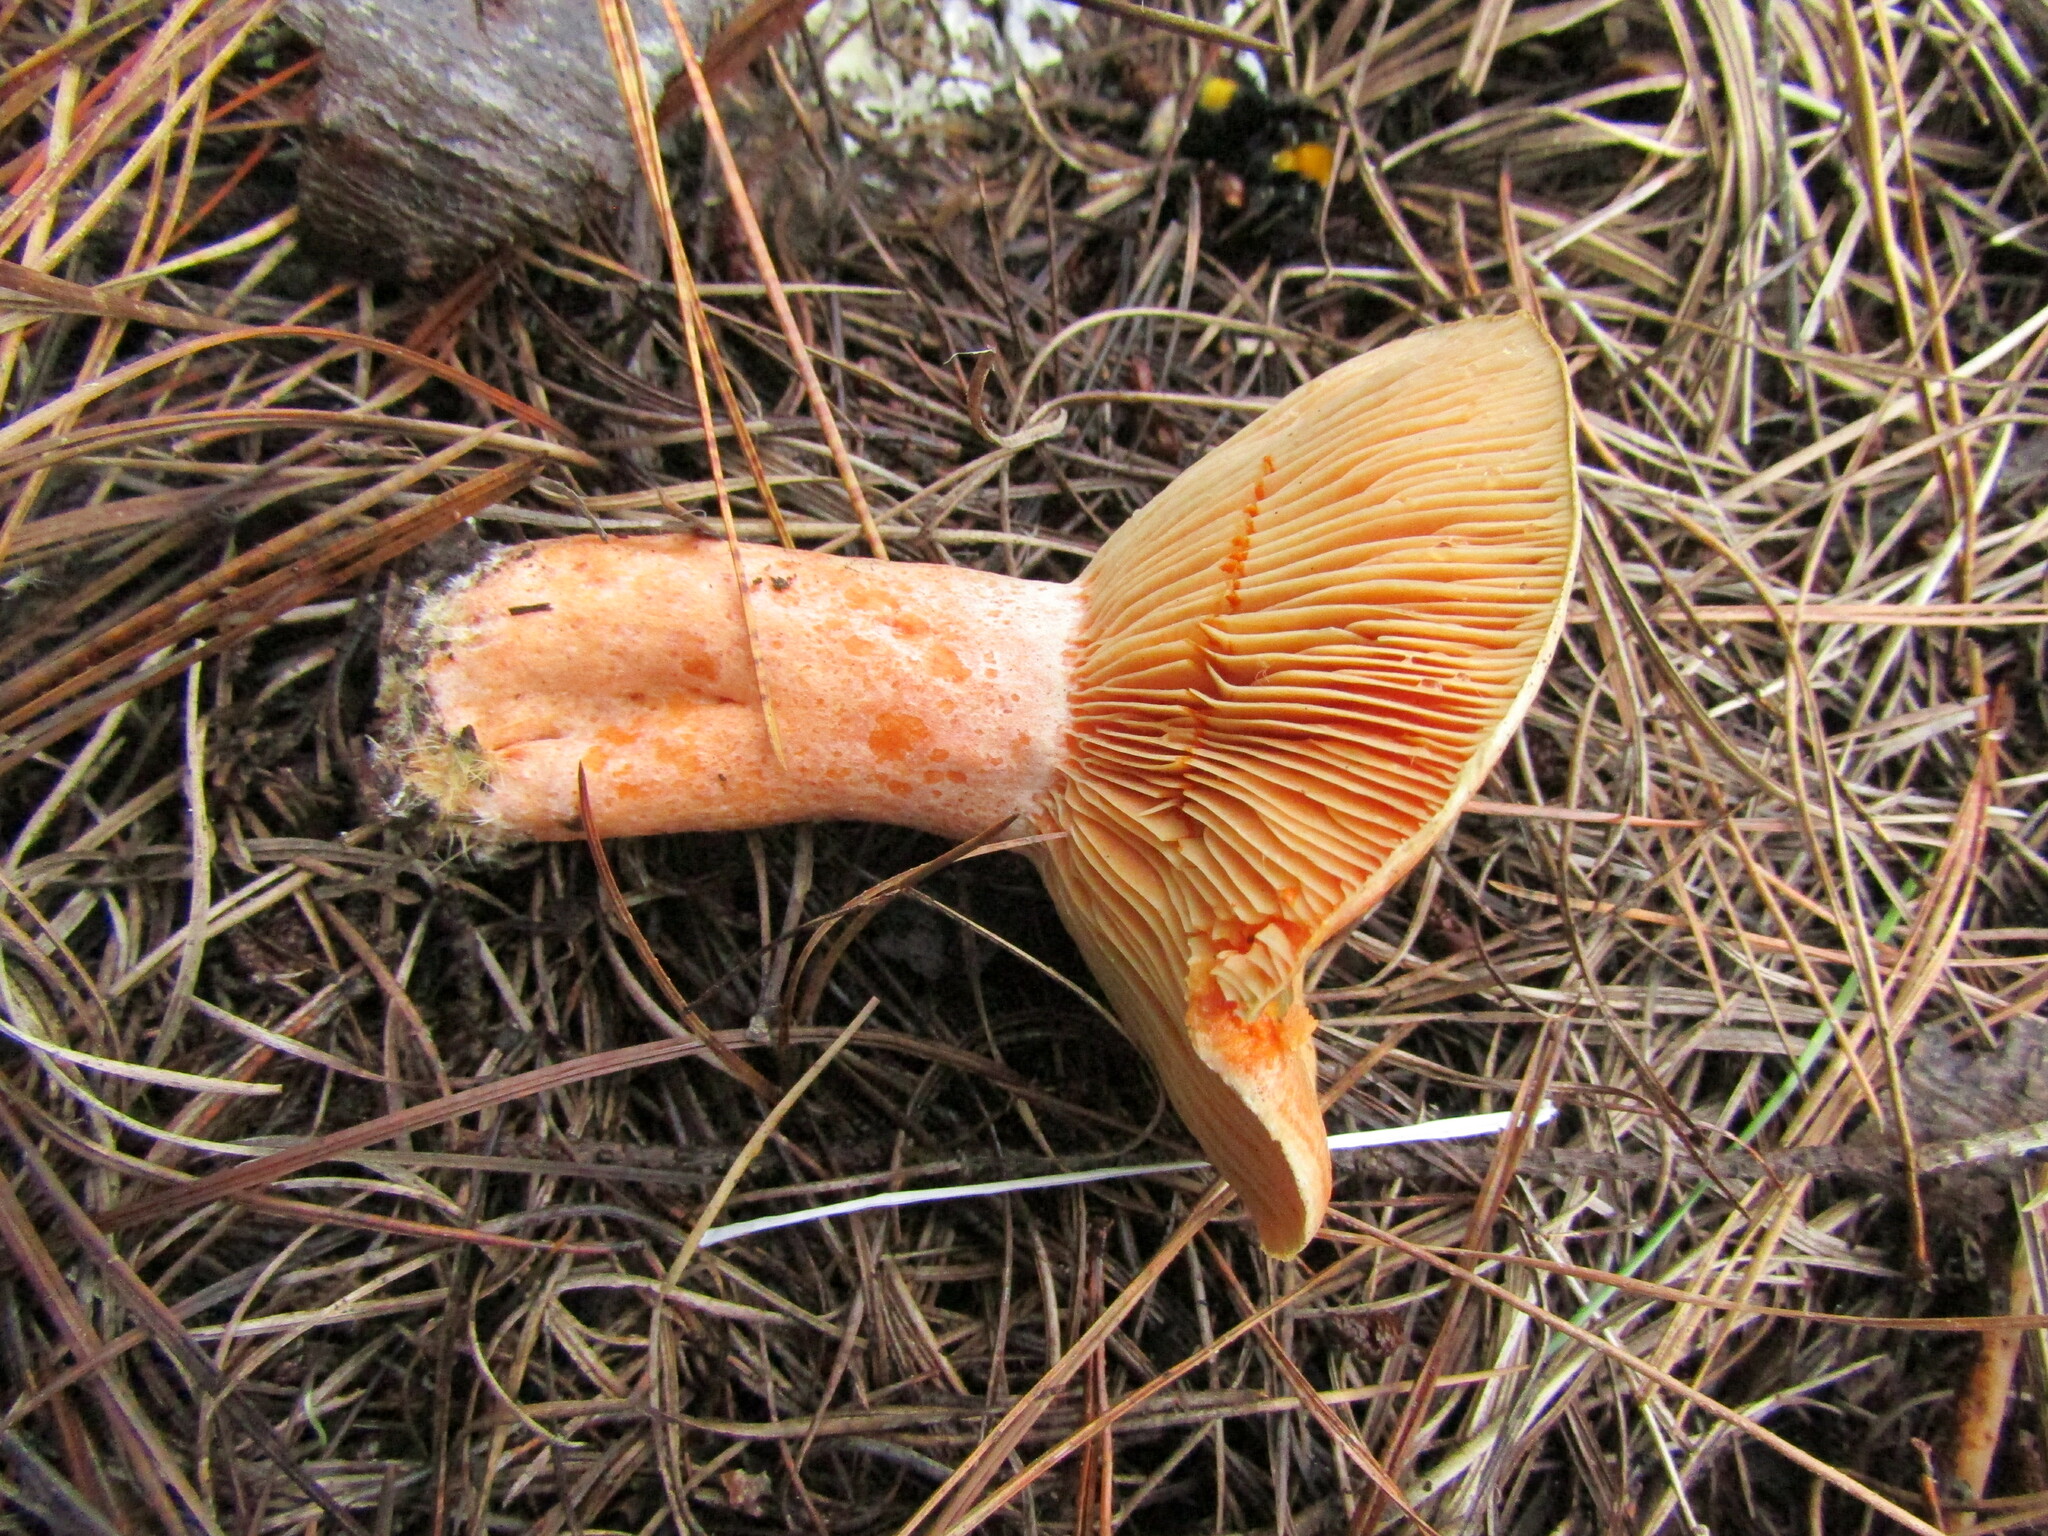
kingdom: Fungi
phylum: Basidiomycota
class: Agaricomycetes
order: Russulales
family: Russulaceae
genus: Lactarius
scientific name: Lactarius deliciosus
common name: Saffron milk-cap
